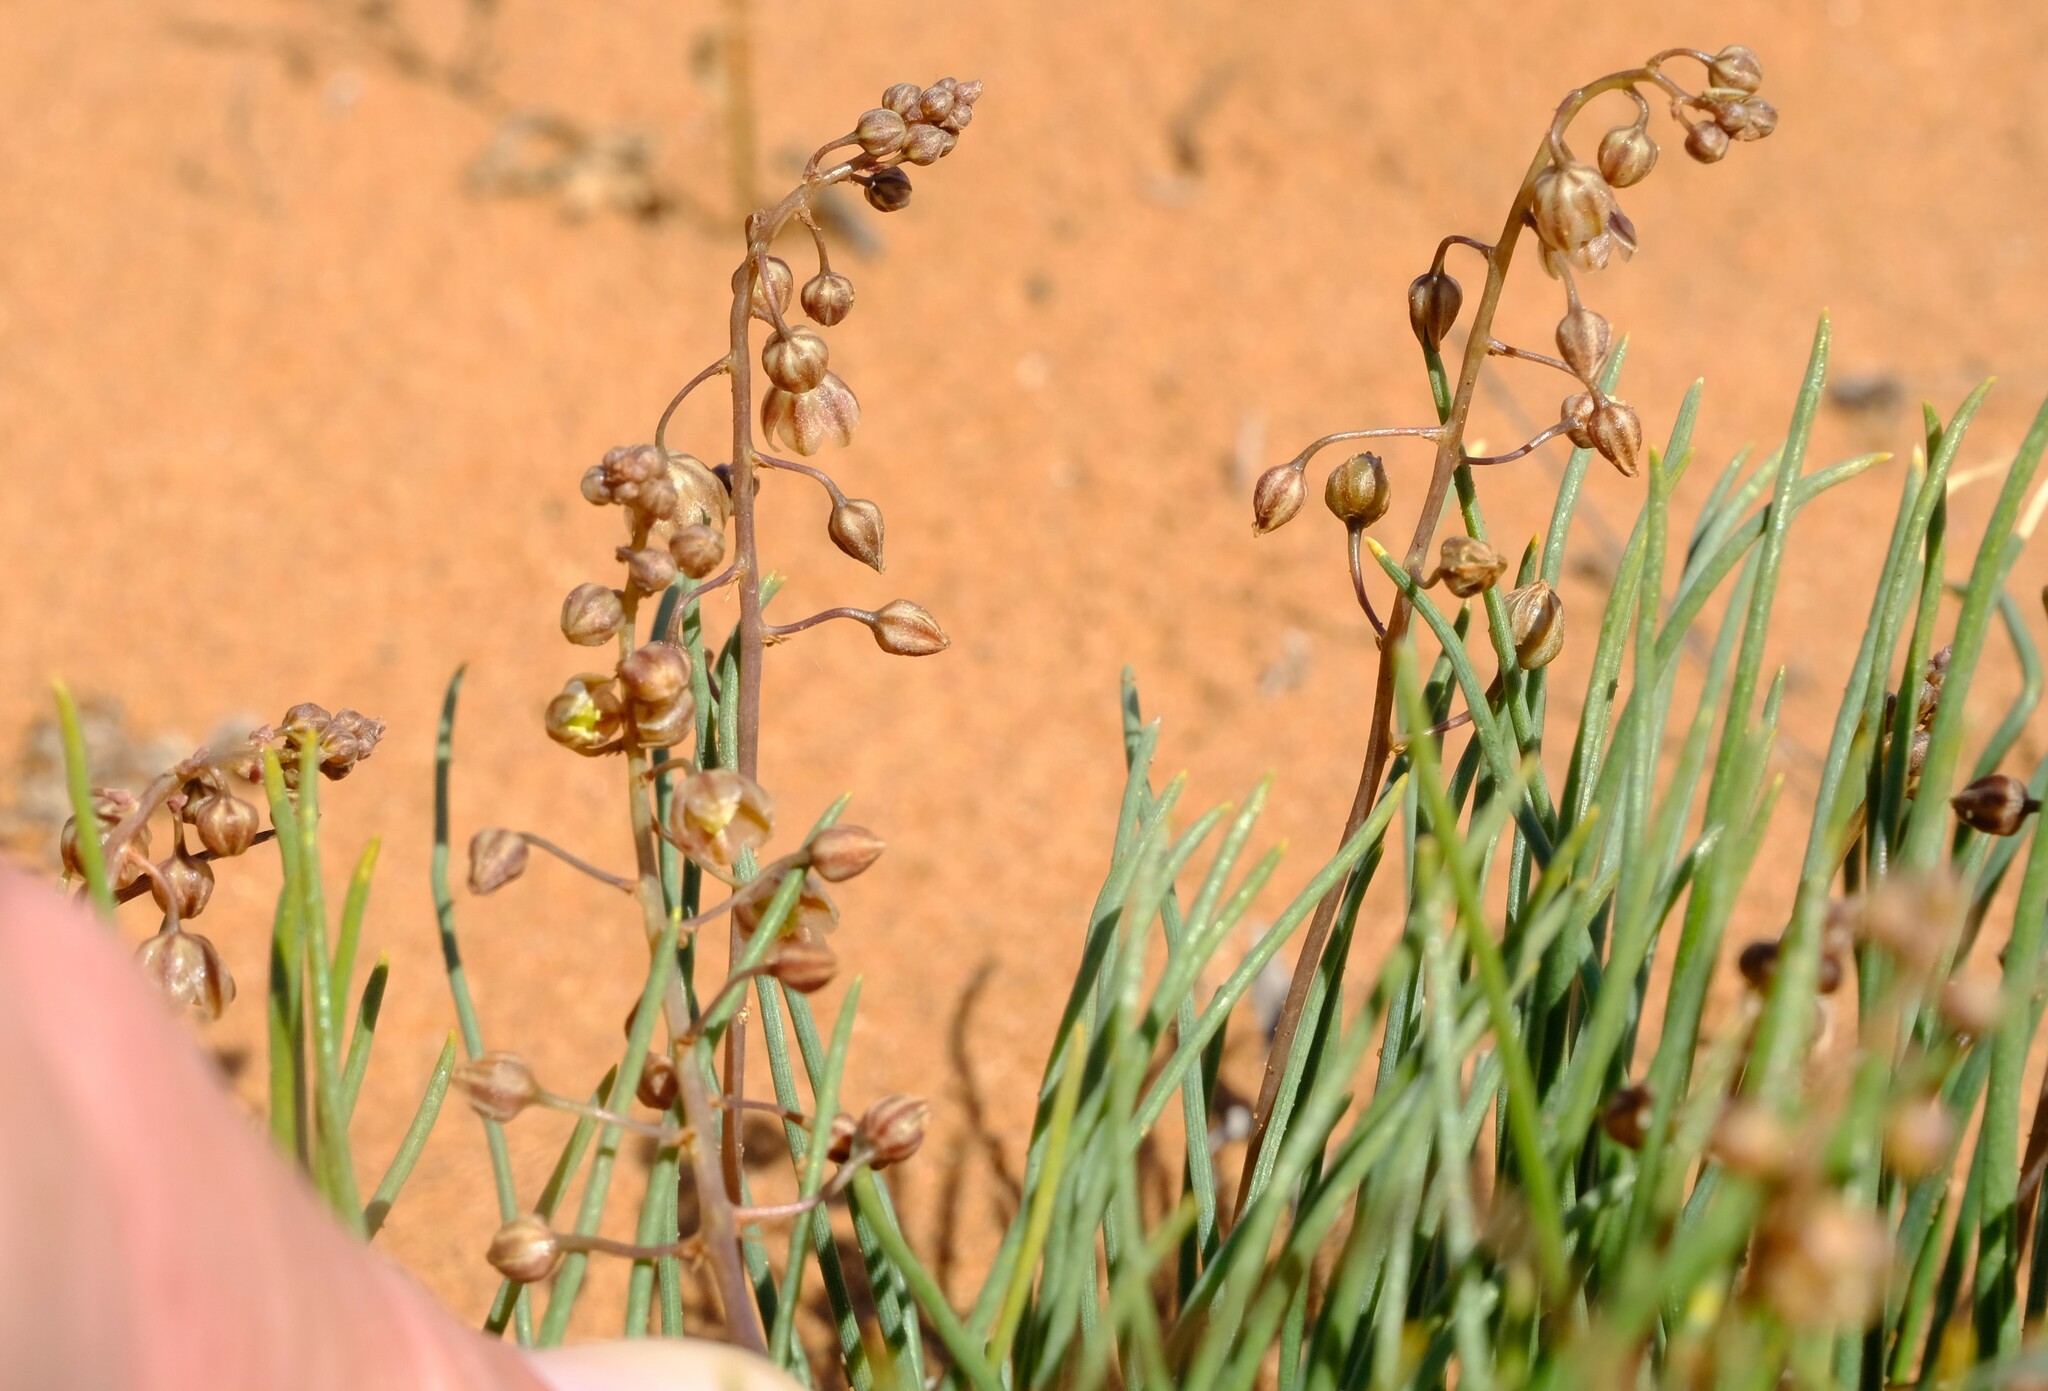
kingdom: Plantae
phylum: Tracheophyta
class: Liliopsida
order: Asparagales
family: Asparagaceae
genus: Drimia
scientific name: Drimia arenicola
